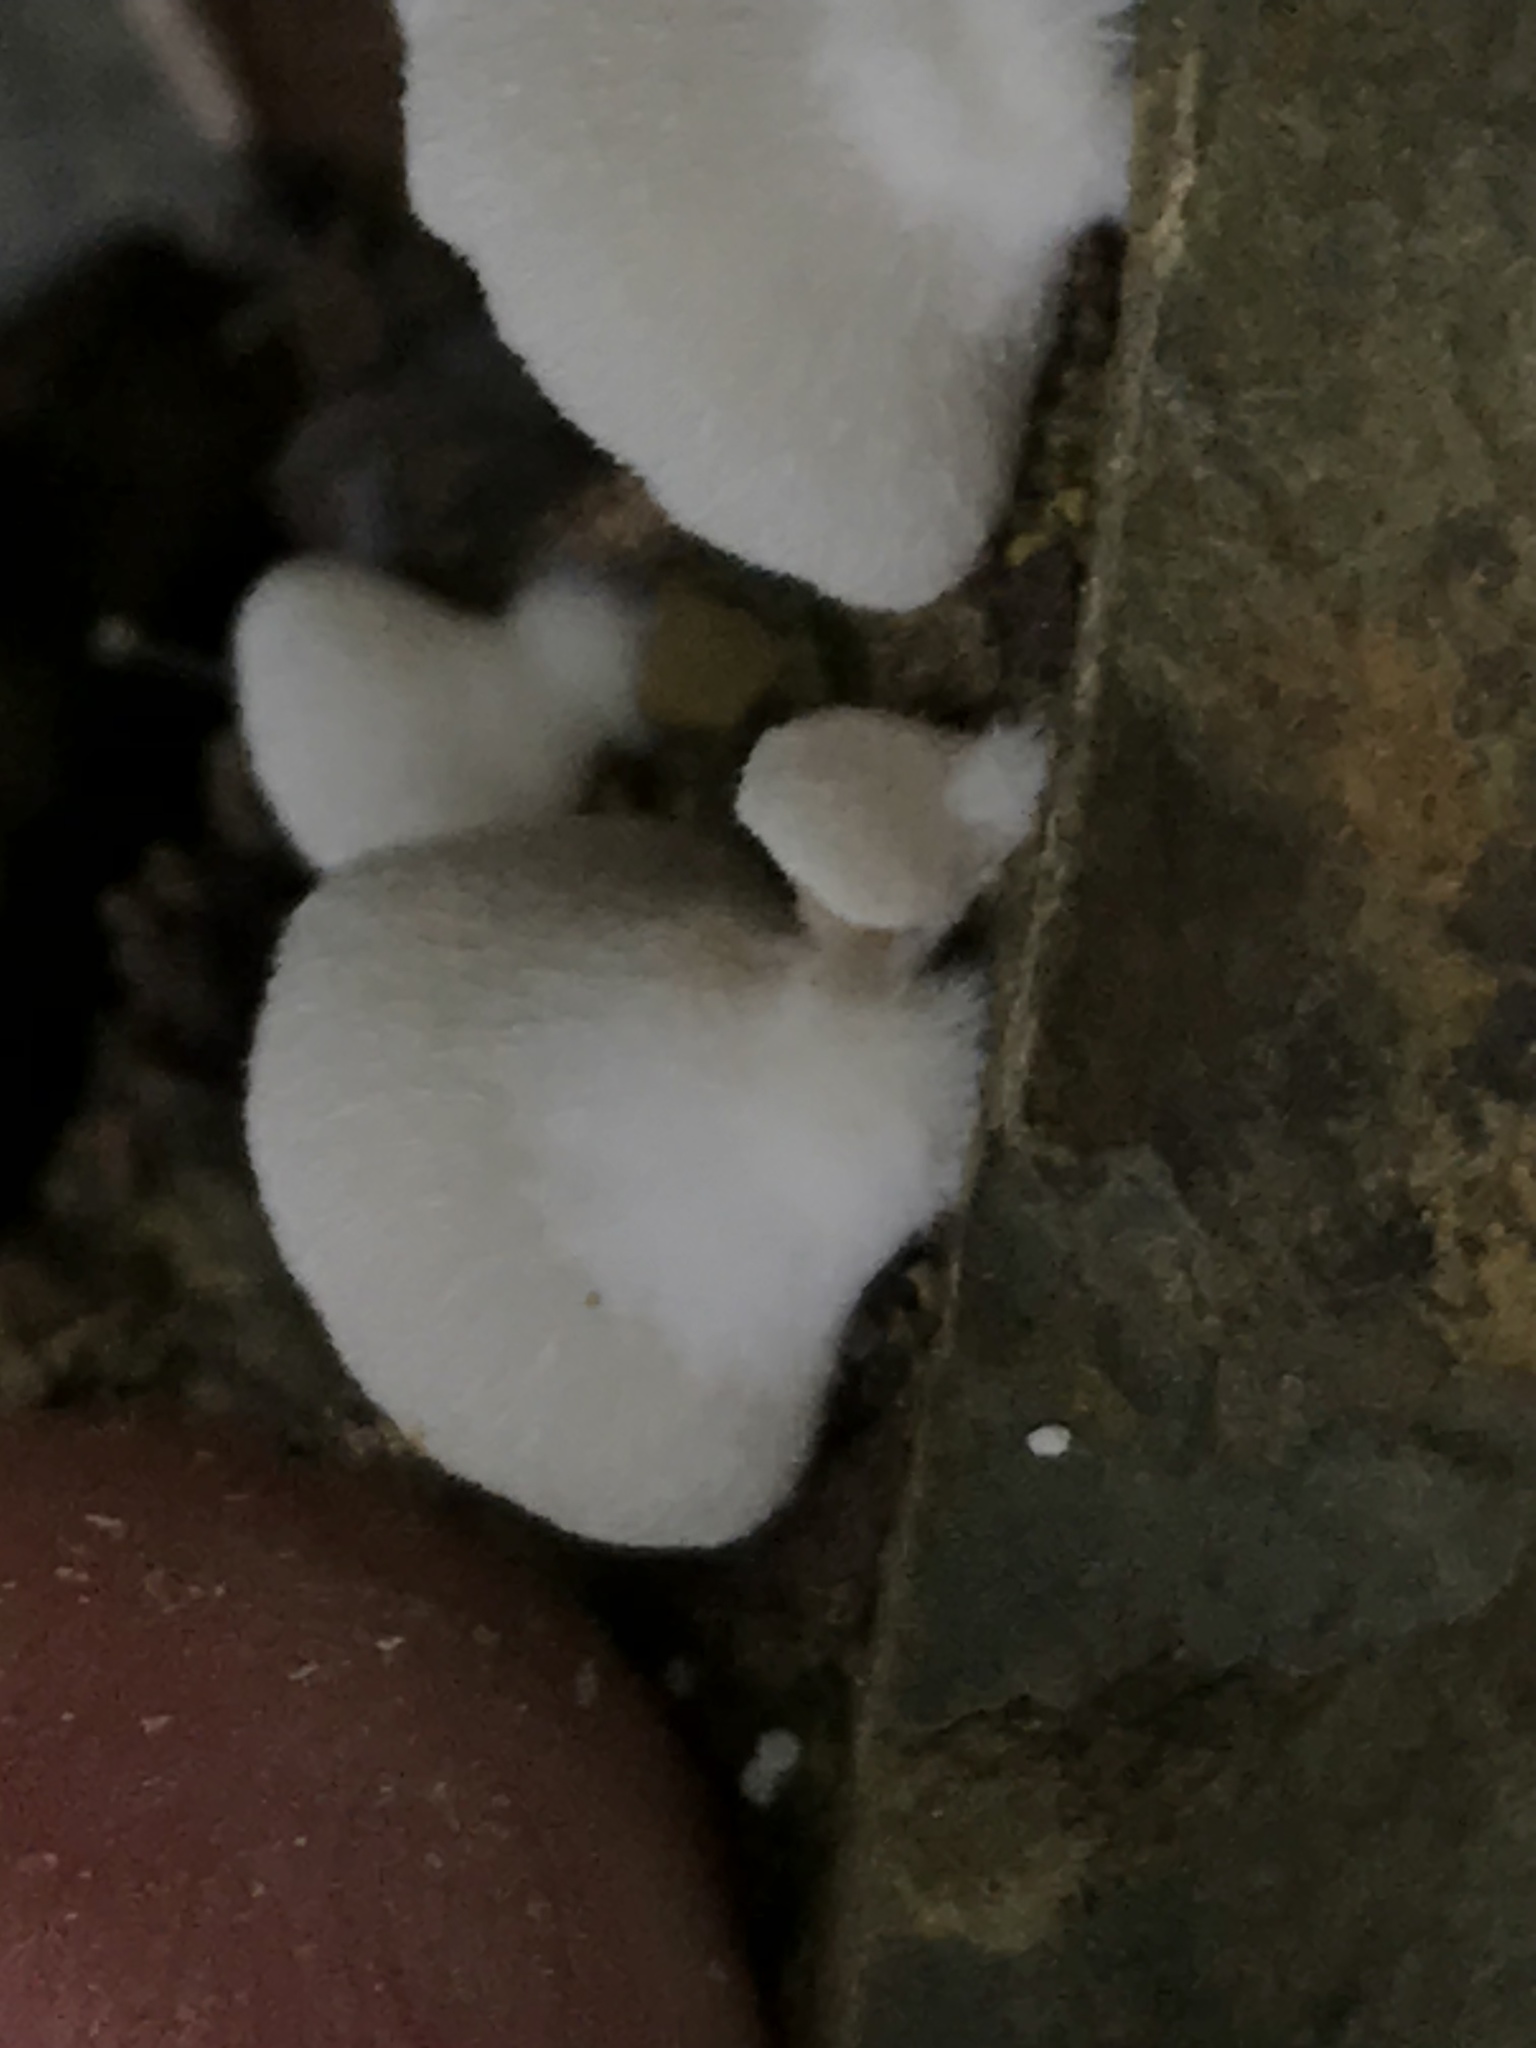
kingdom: Fungi
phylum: Basidiomycota
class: Agaricomycetes
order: Agaricales
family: Crepidotaceae
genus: Crepidotus
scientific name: Crepidotus mollis
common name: Peeling oysterling
